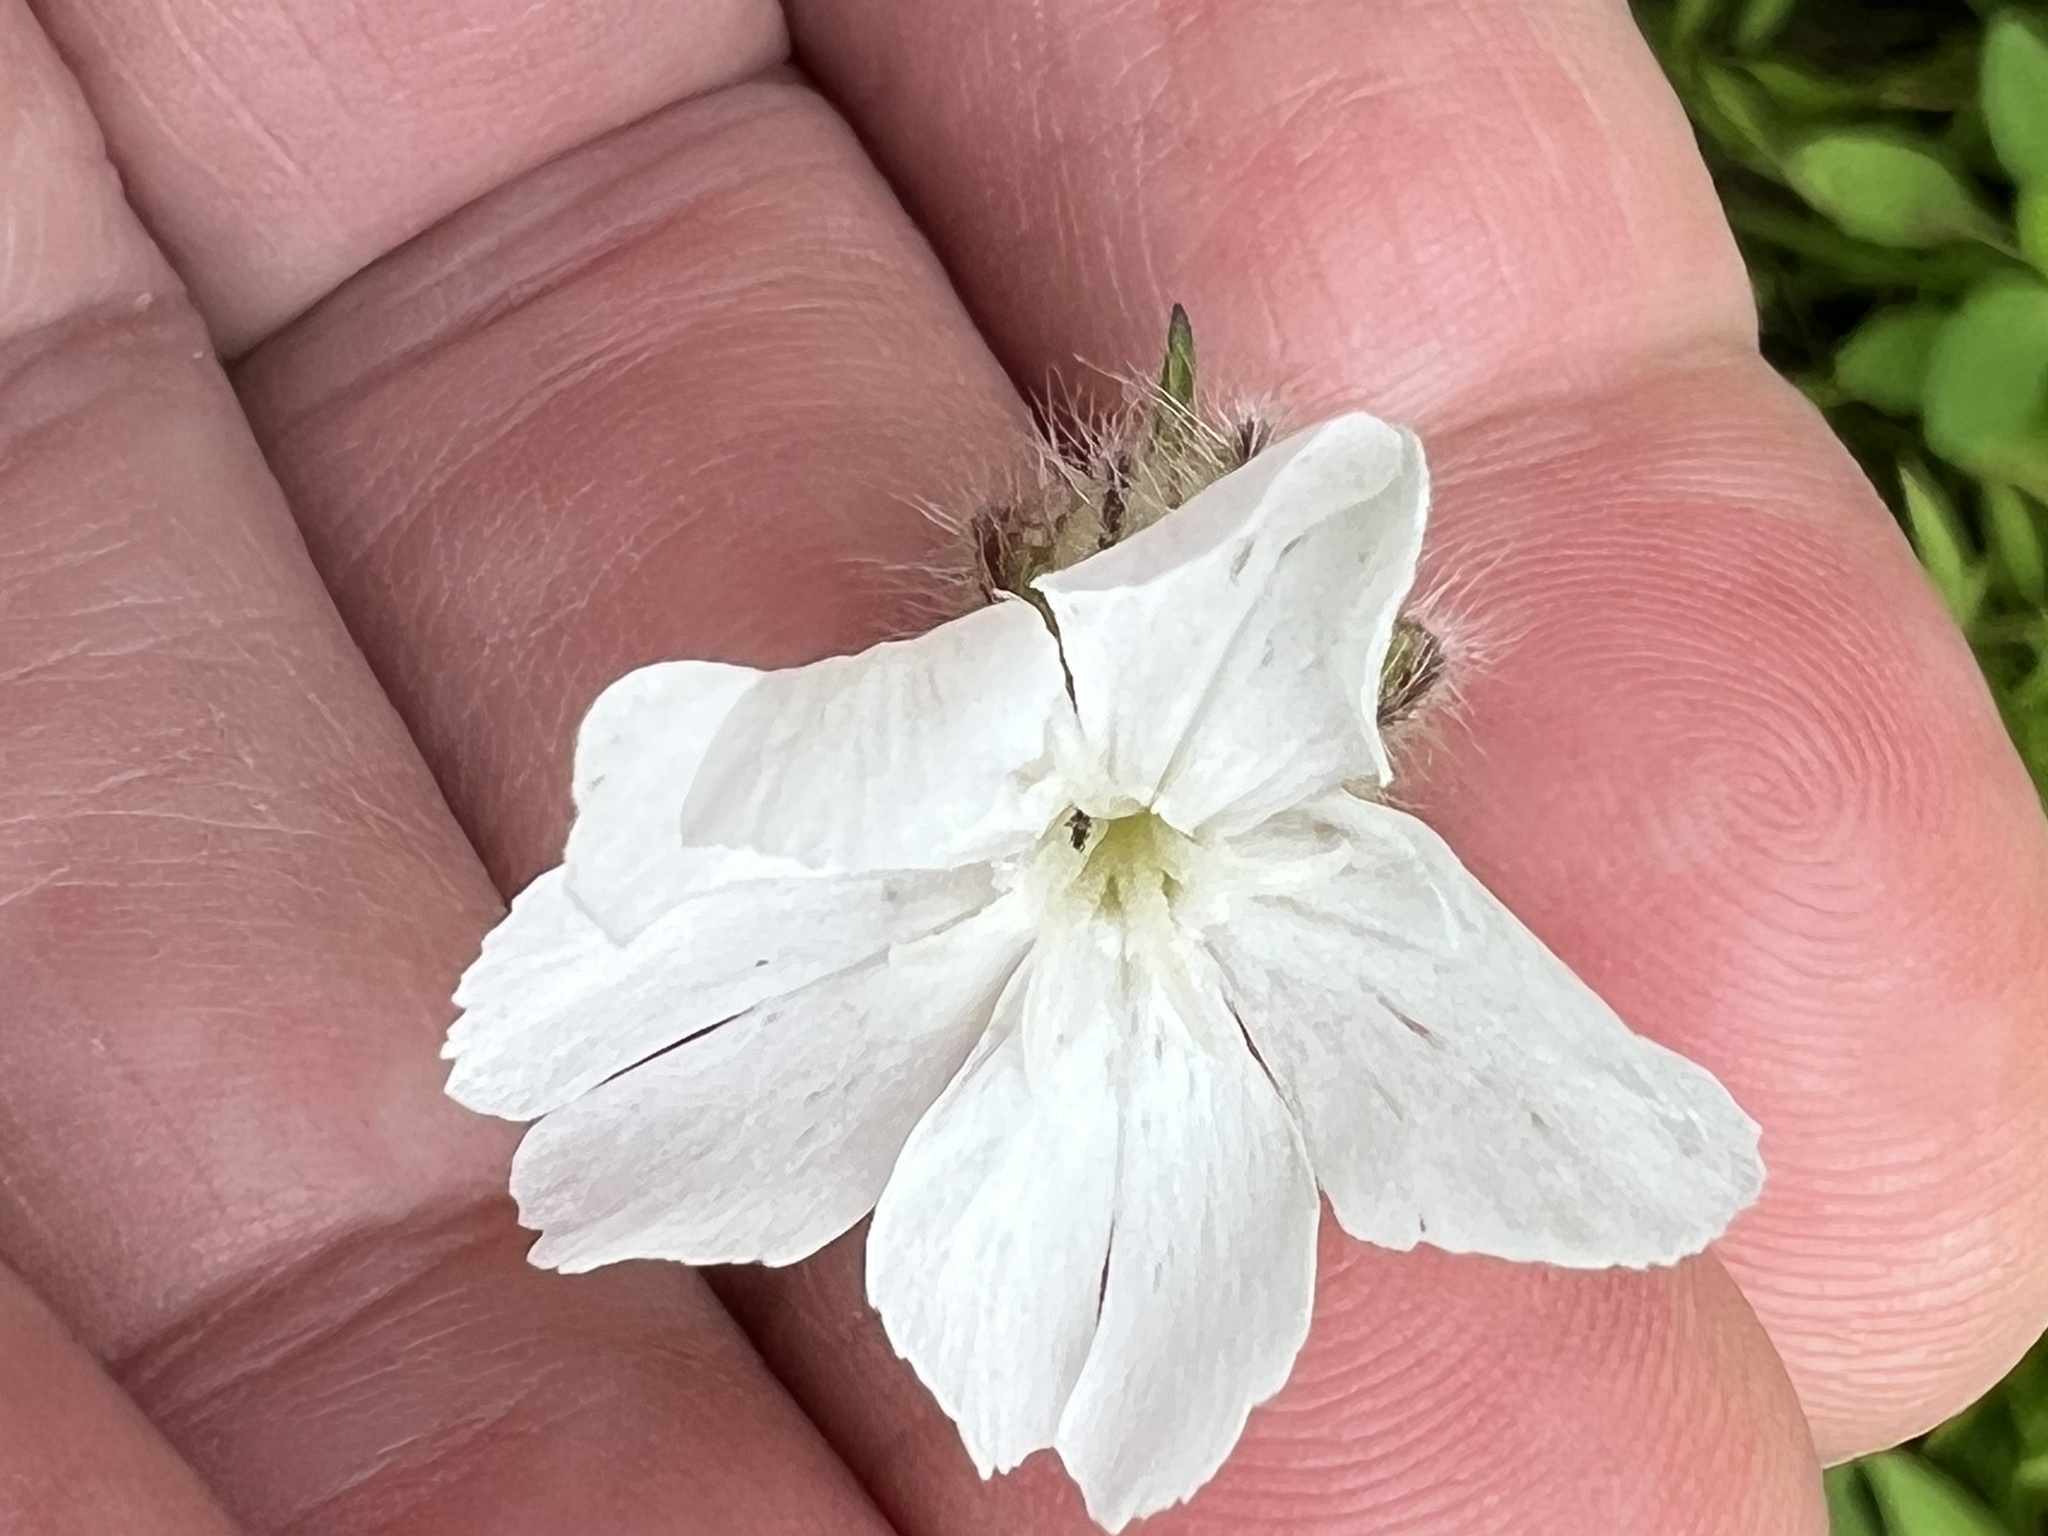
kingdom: Plantae
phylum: Tracheophyta
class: Magnoliopsida
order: Caryophyllales
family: Caryophyllaceae
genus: Silene
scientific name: Silene latifolia
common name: White campion
